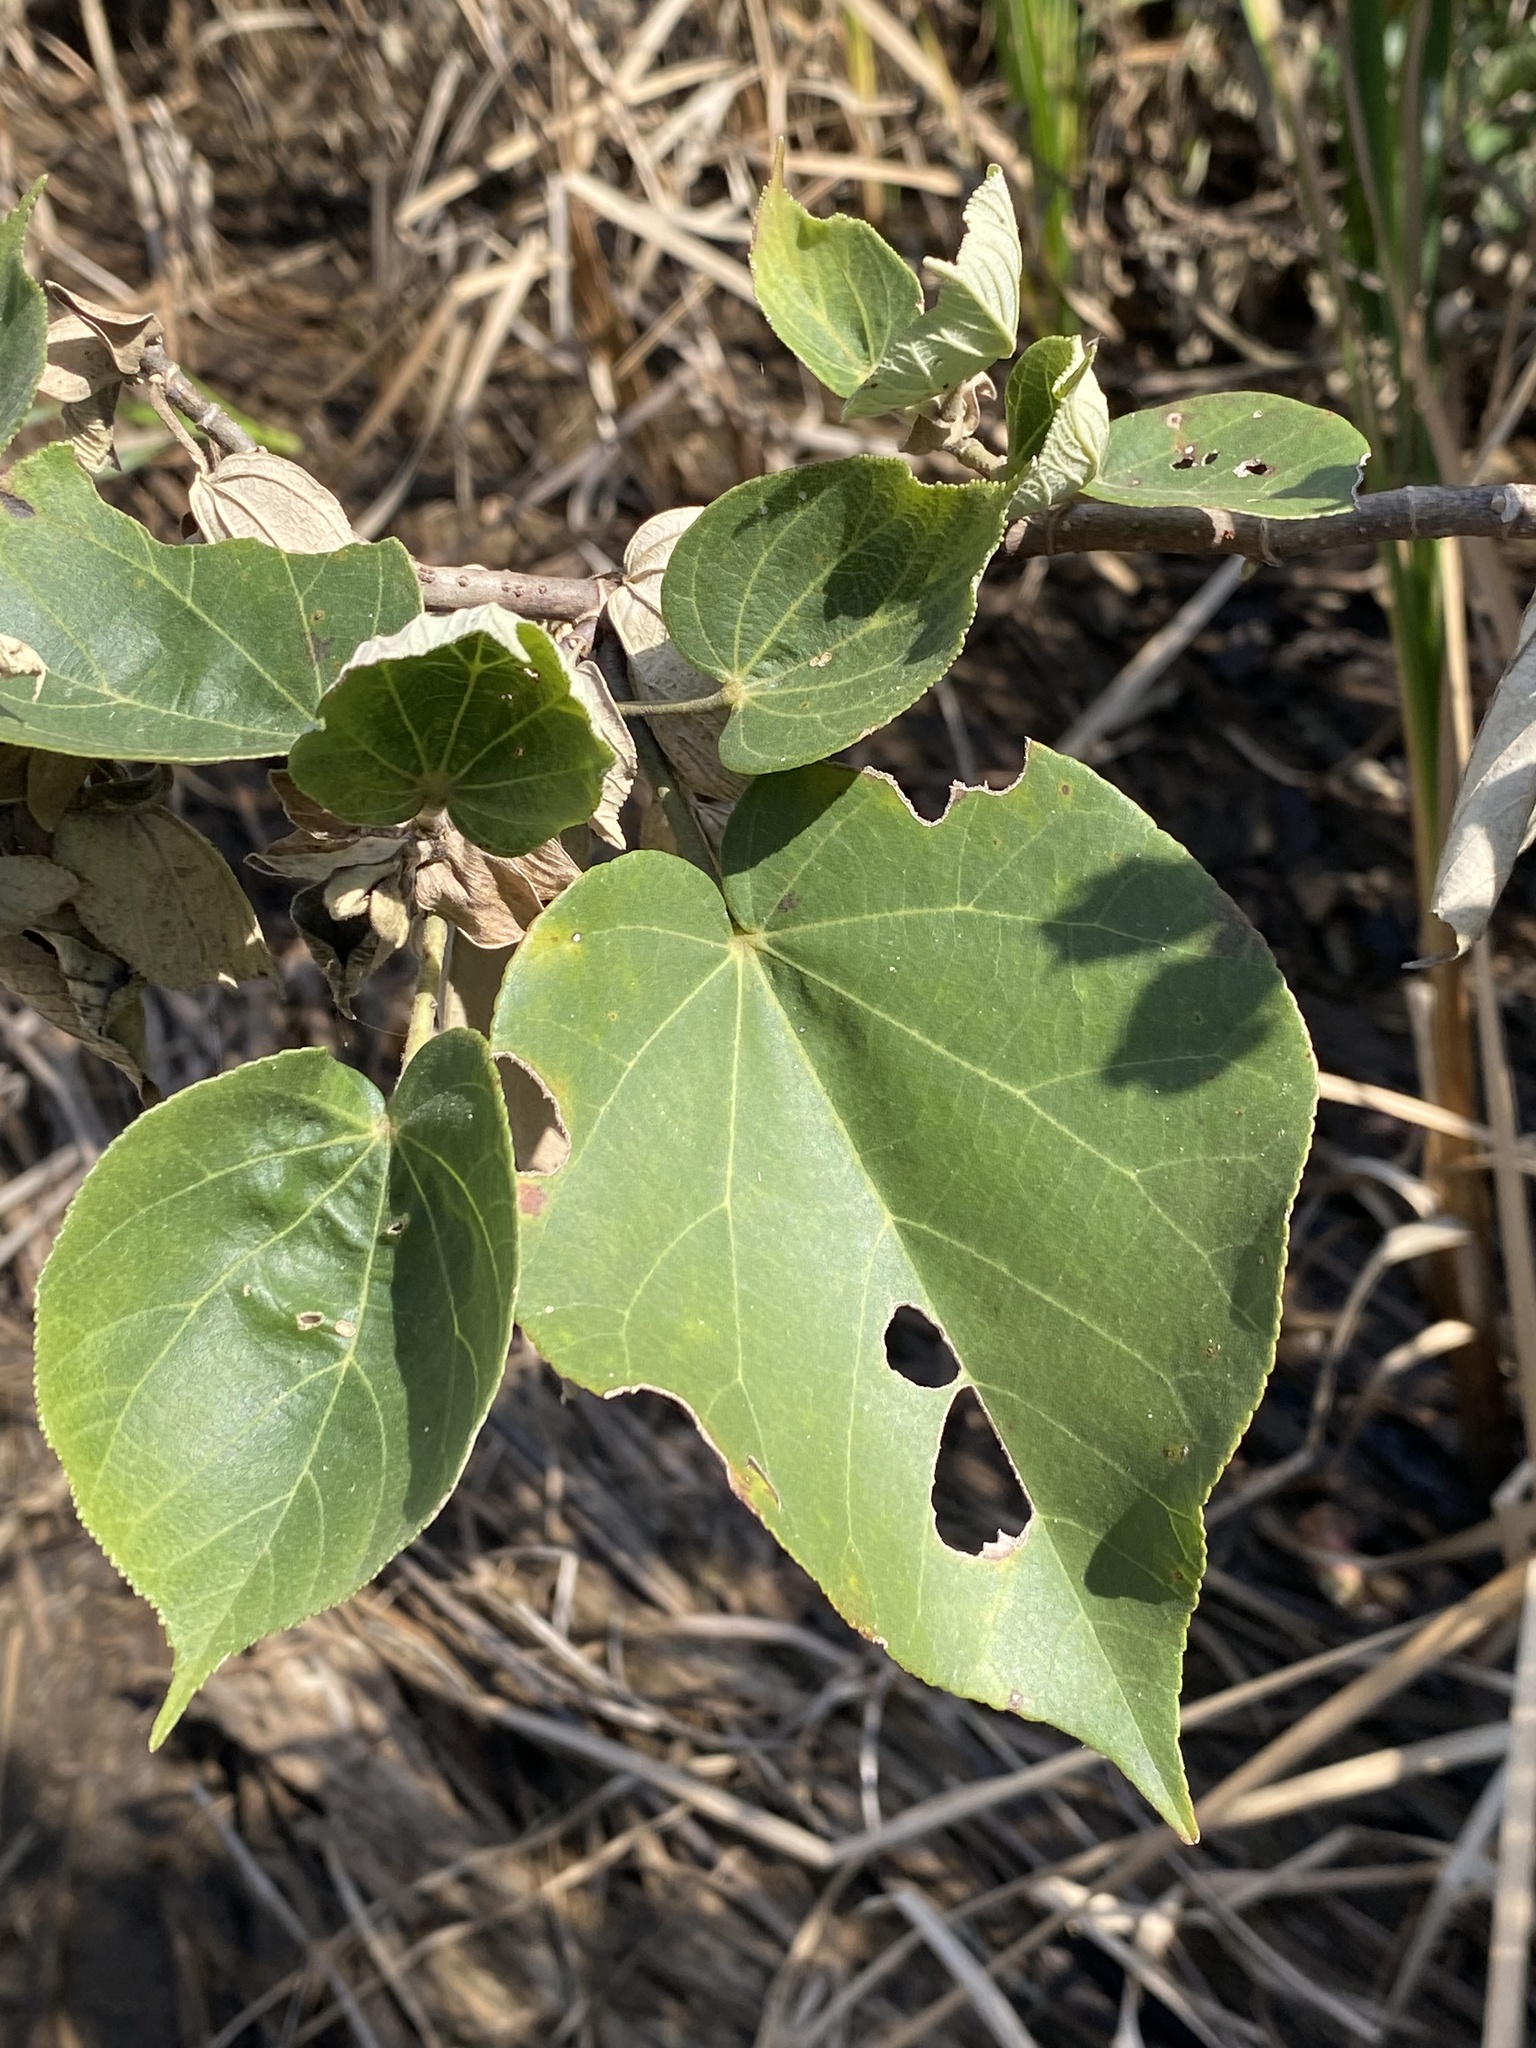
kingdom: Plantae
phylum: Tracheophyta
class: Magnoliopsida
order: Malvales
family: Malvaceae
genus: Talipariti
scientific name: Talipariti tiliaceum
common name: Sea hibiscus
